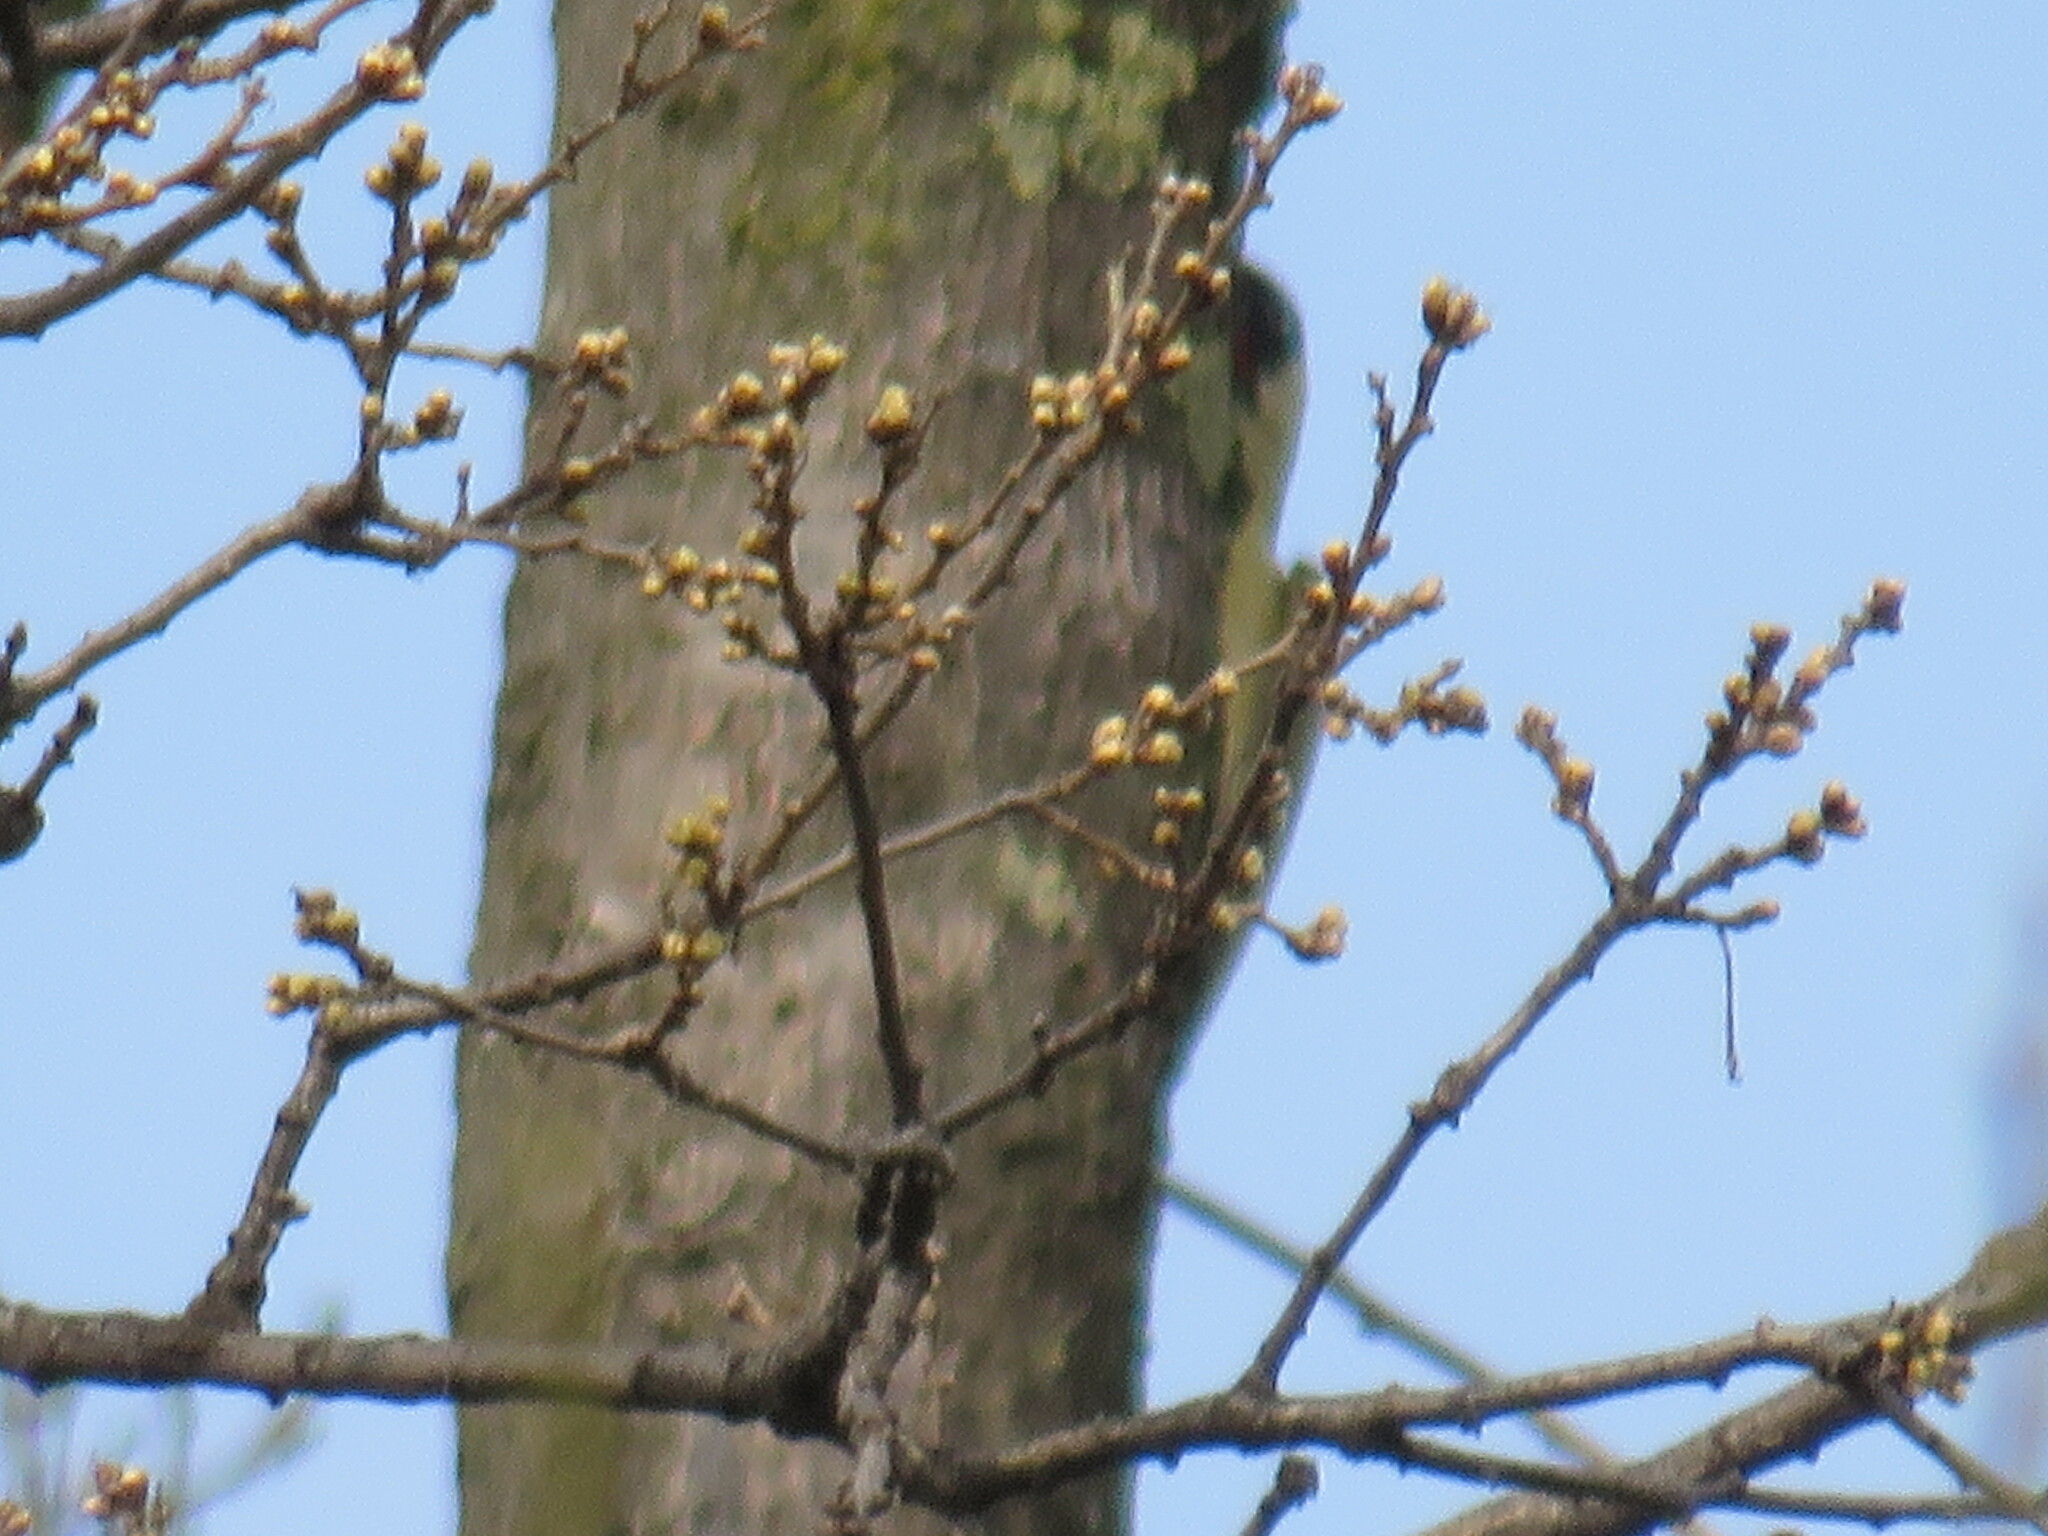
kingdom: Animalia
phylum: Chordata
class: Aves
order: Piciformes
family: Picidae
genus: Picus
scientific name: Picus viridis
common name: European green woodpecker
